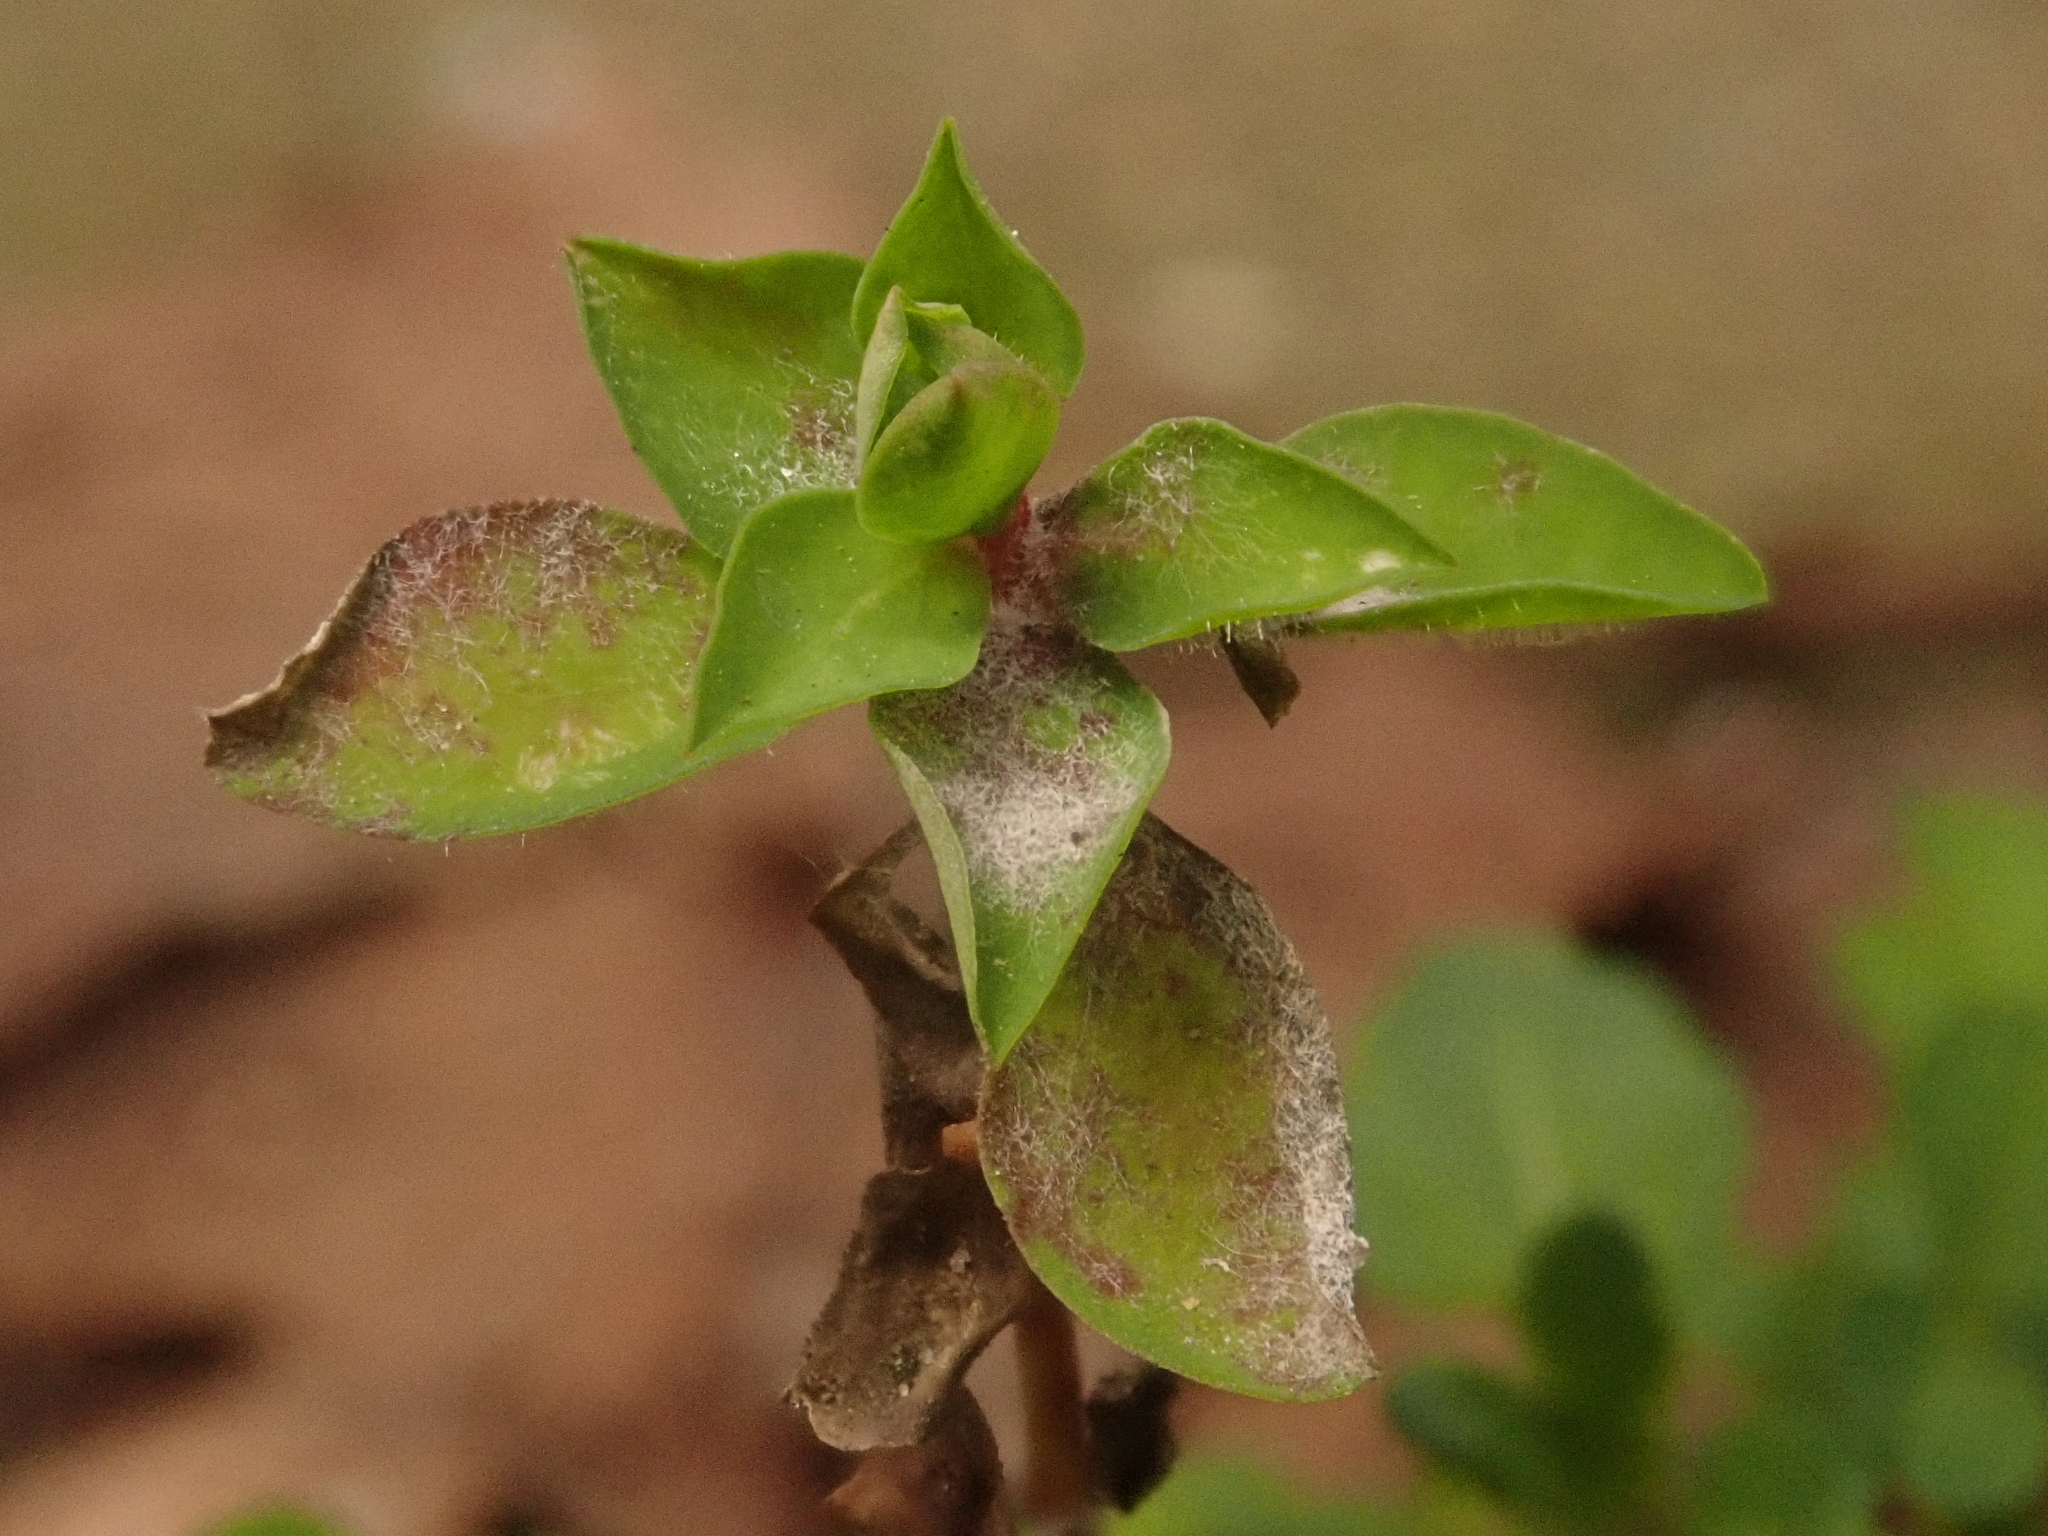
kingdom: Plantae
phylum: Tracheophyta
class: Magnoliopsida
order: Malpighiales
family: Euphorbiaceae
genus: Euphorbia
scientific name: Euphorbia peplus
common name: Petty spurge
